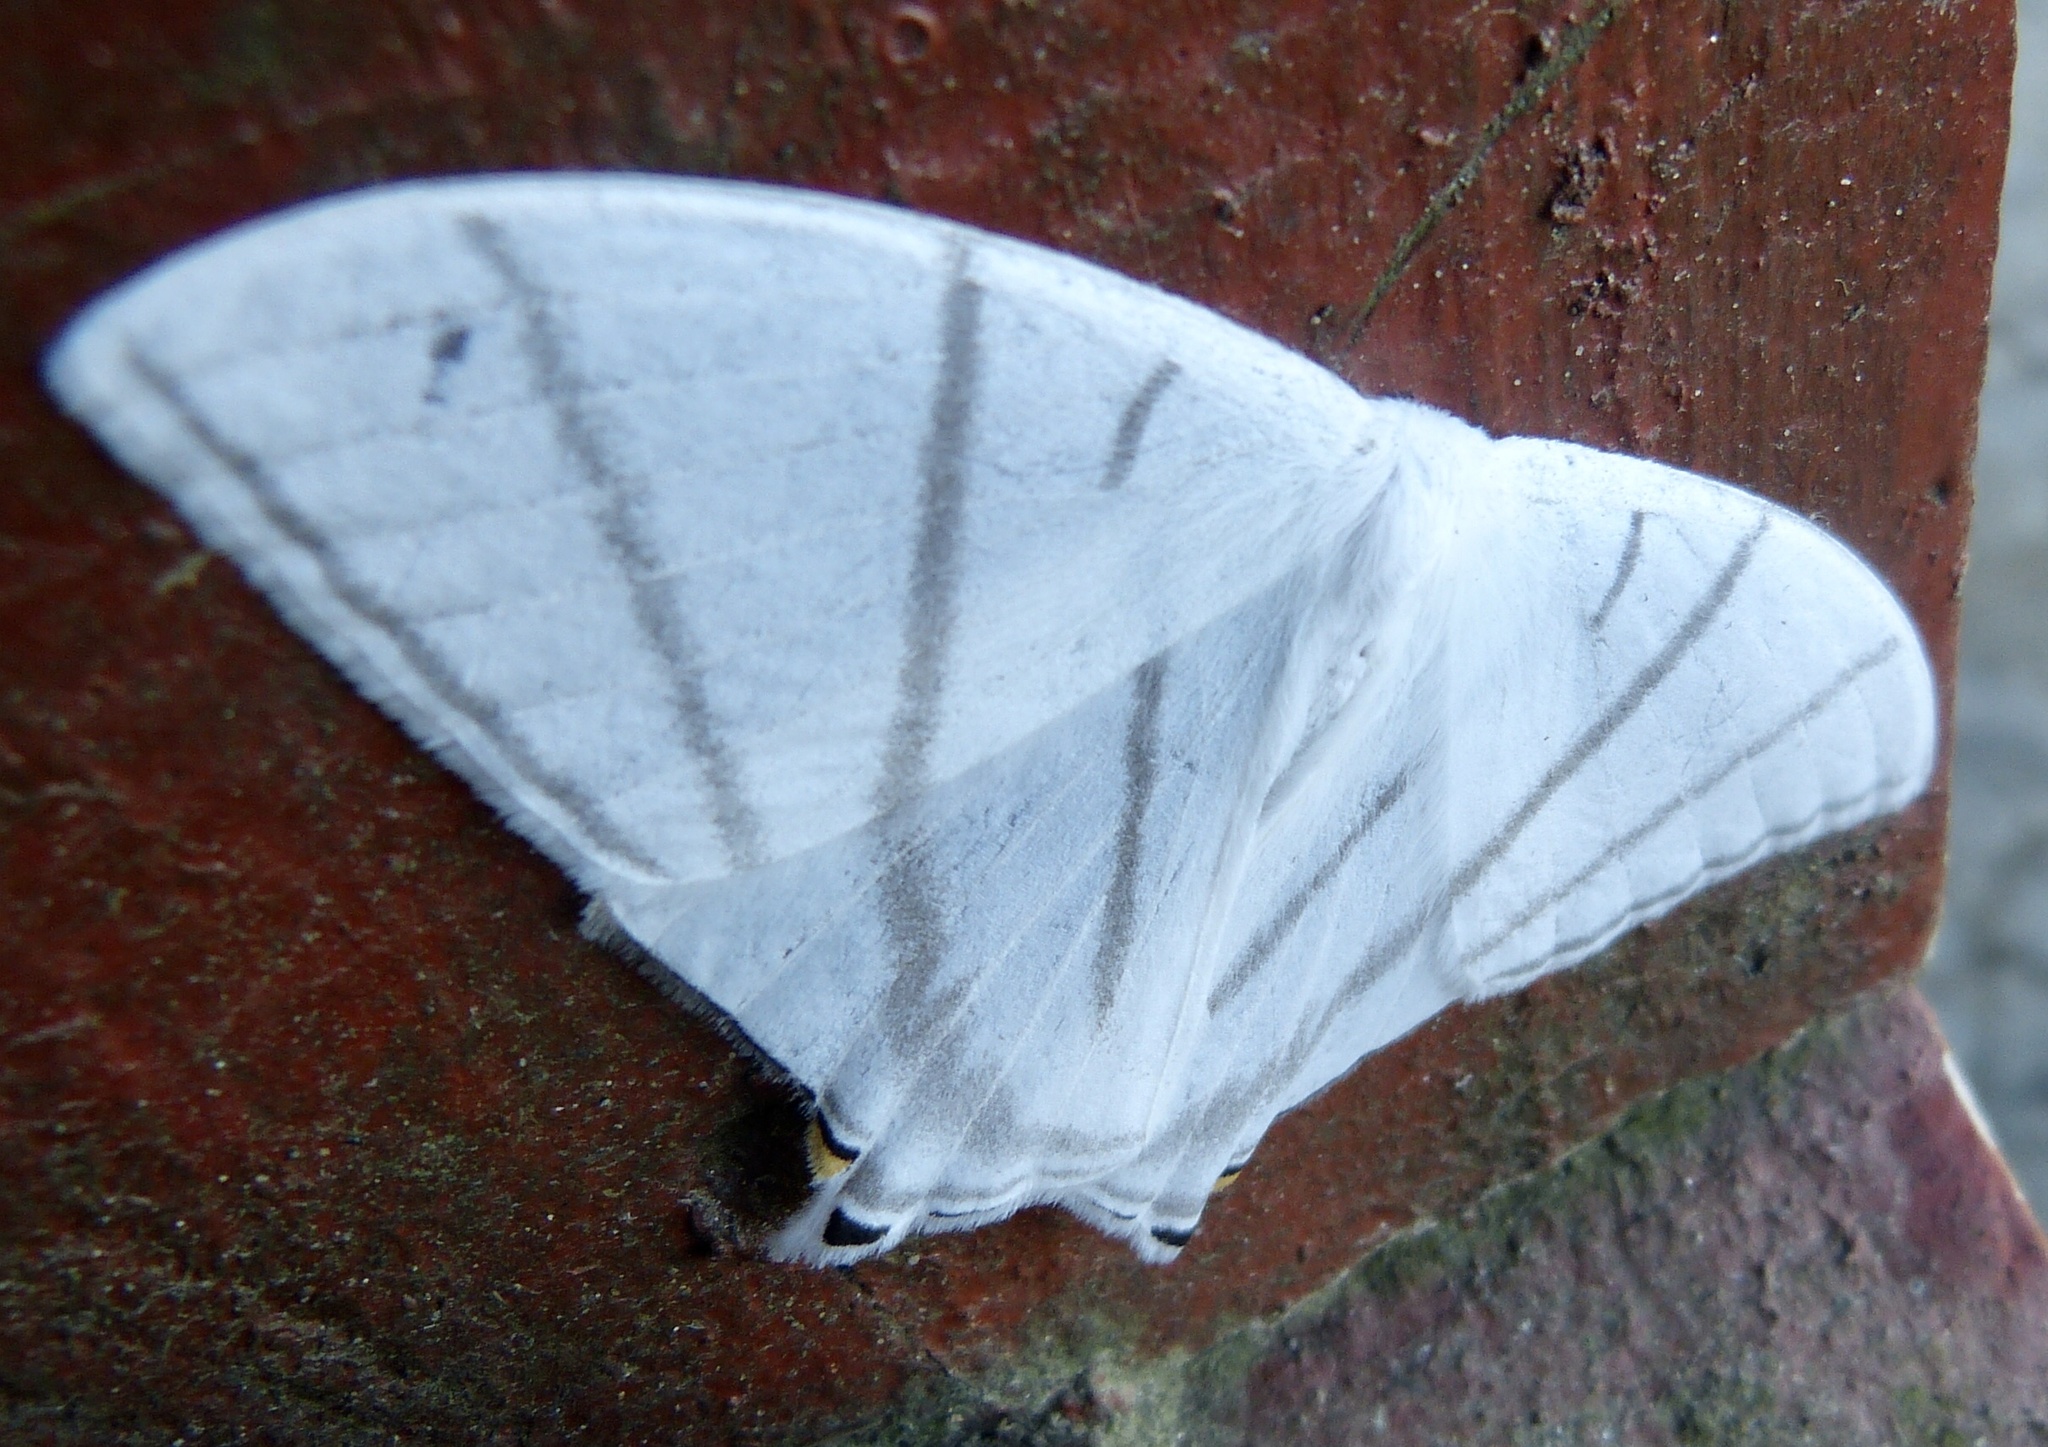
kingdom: Animalia
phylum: Arthropoda
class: Insecta
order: Lepidoptera
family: Saturniidae
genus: Therinia
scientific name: Therinia transversaria
